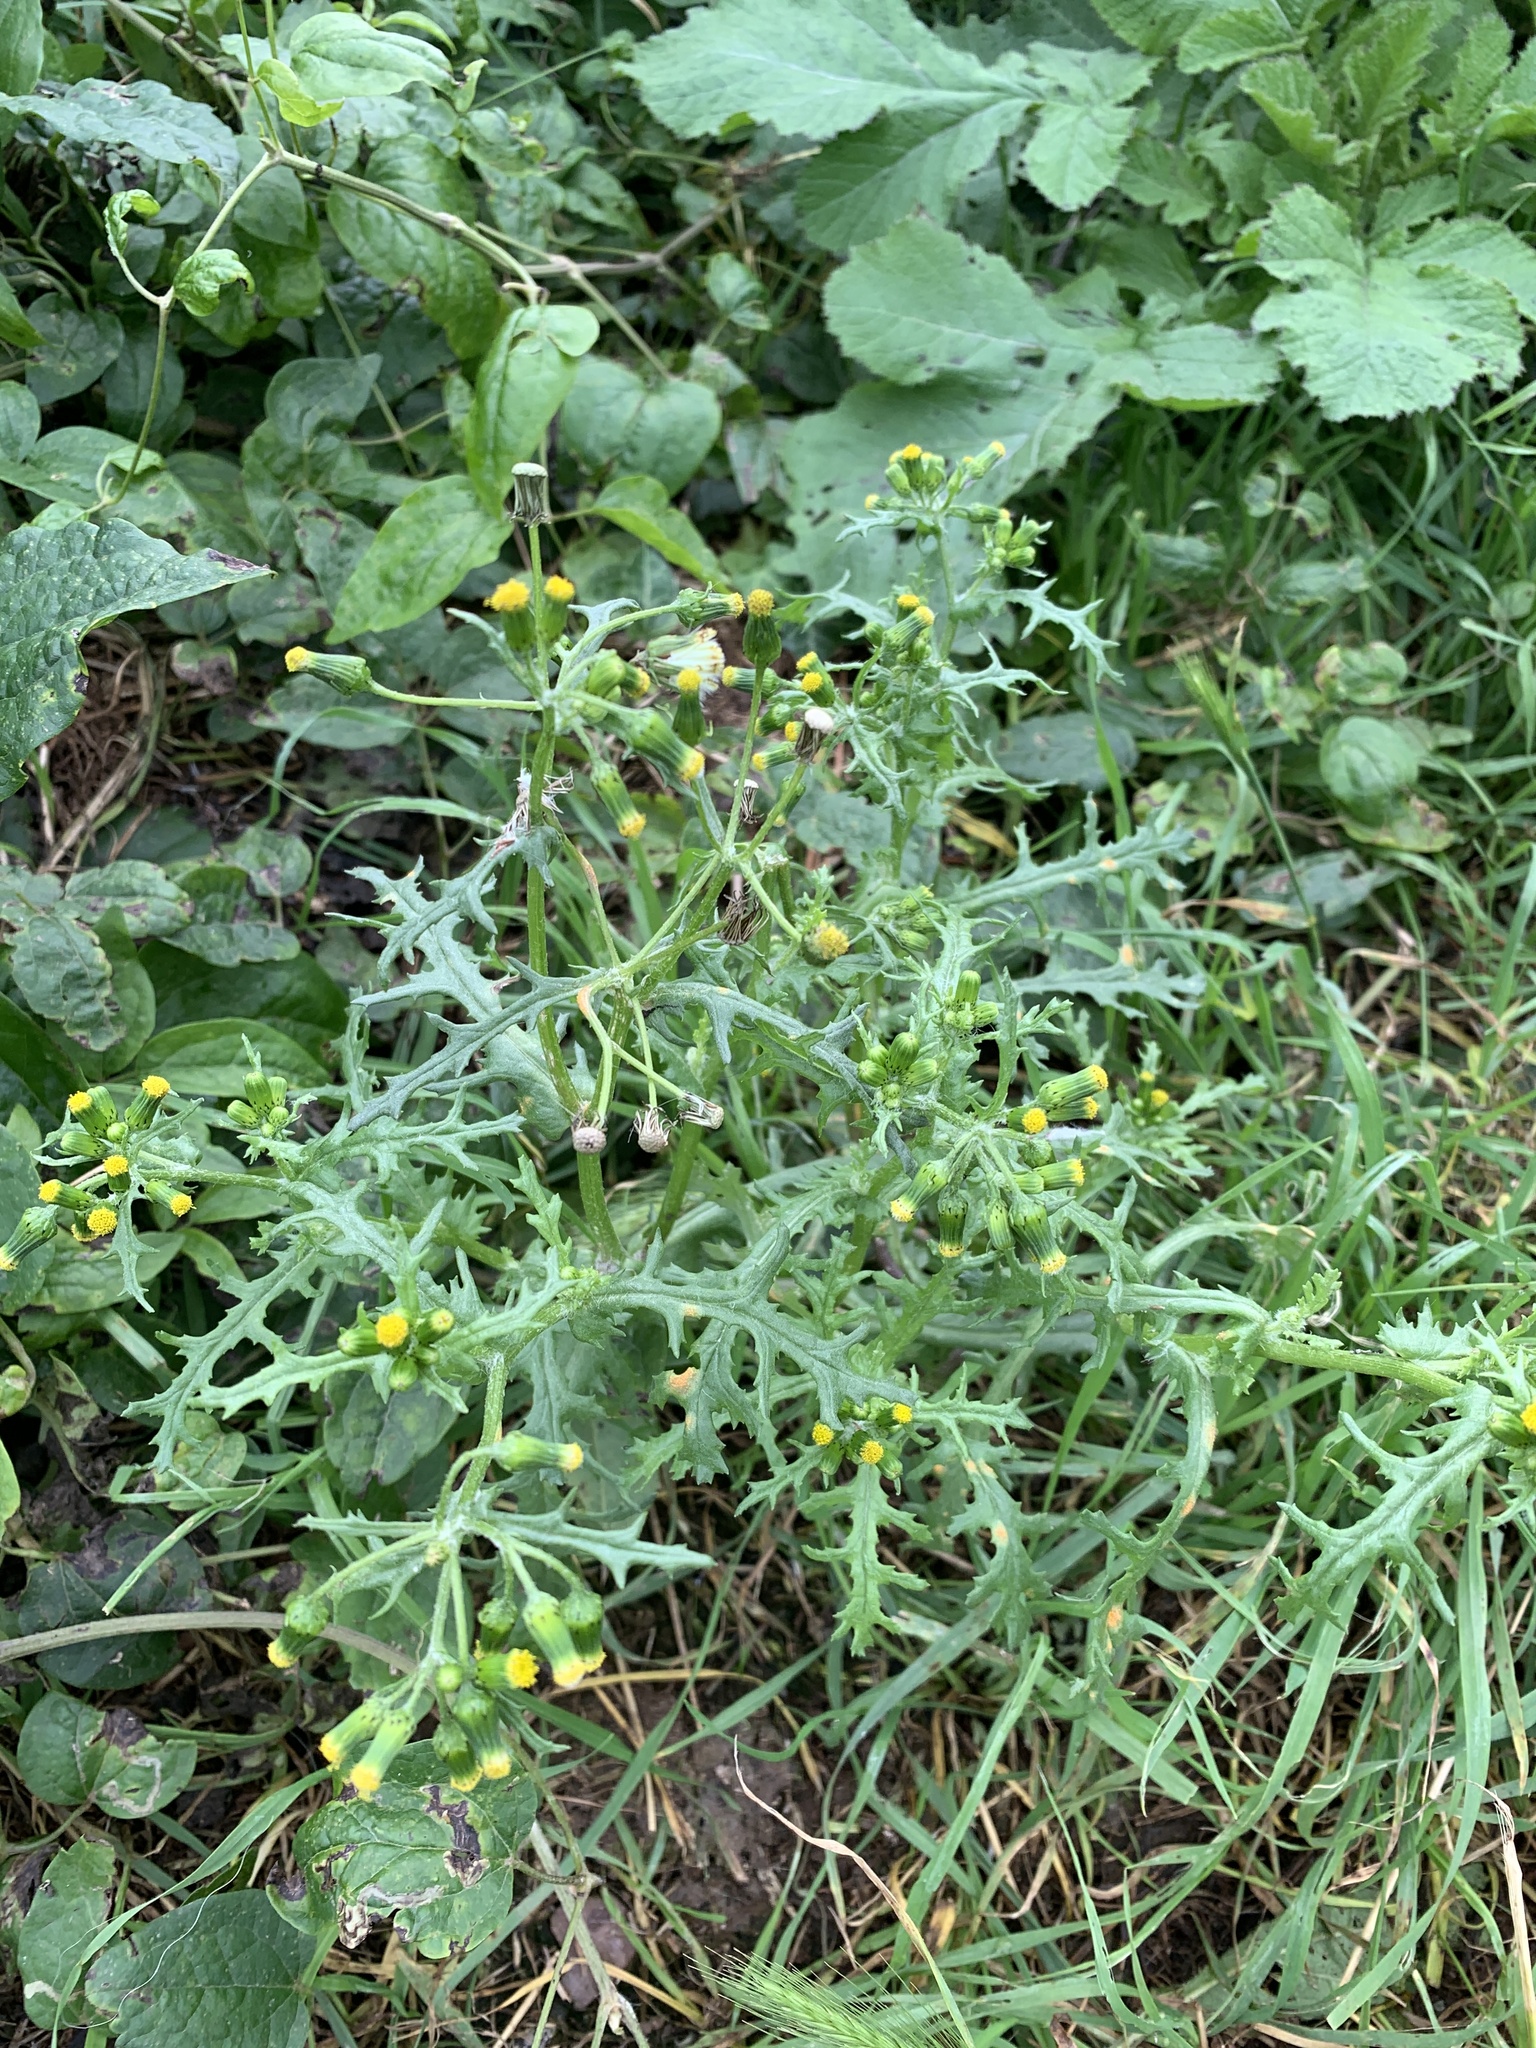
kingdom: Plantae
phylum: Tracheophyta
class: Magnoliopsida
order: Asterales
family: Asteraceae
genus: Senecio
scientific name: Senecio vulgaris
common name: Old-man-in-the-spring
